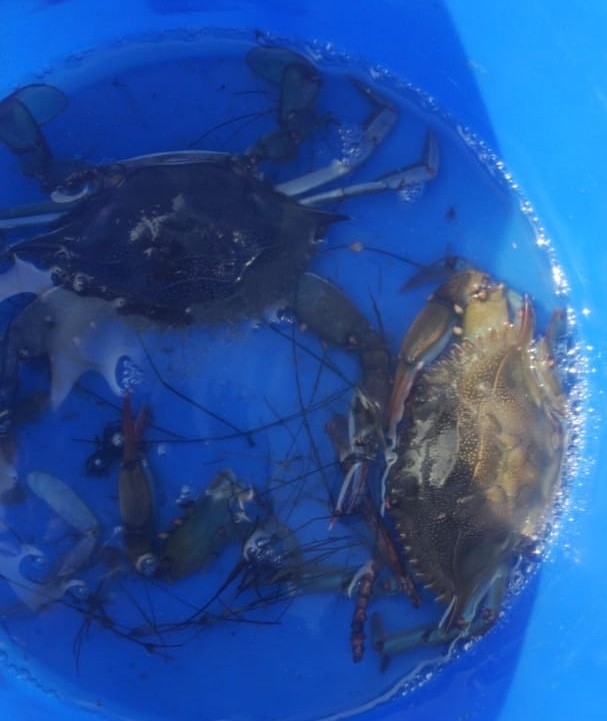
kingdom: Animalia
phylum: Arthropoda
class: Malacostraca
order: Decapoda
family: Portunidae
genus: Callinectes
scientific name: Callinectes sapidus
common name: Blue crab
